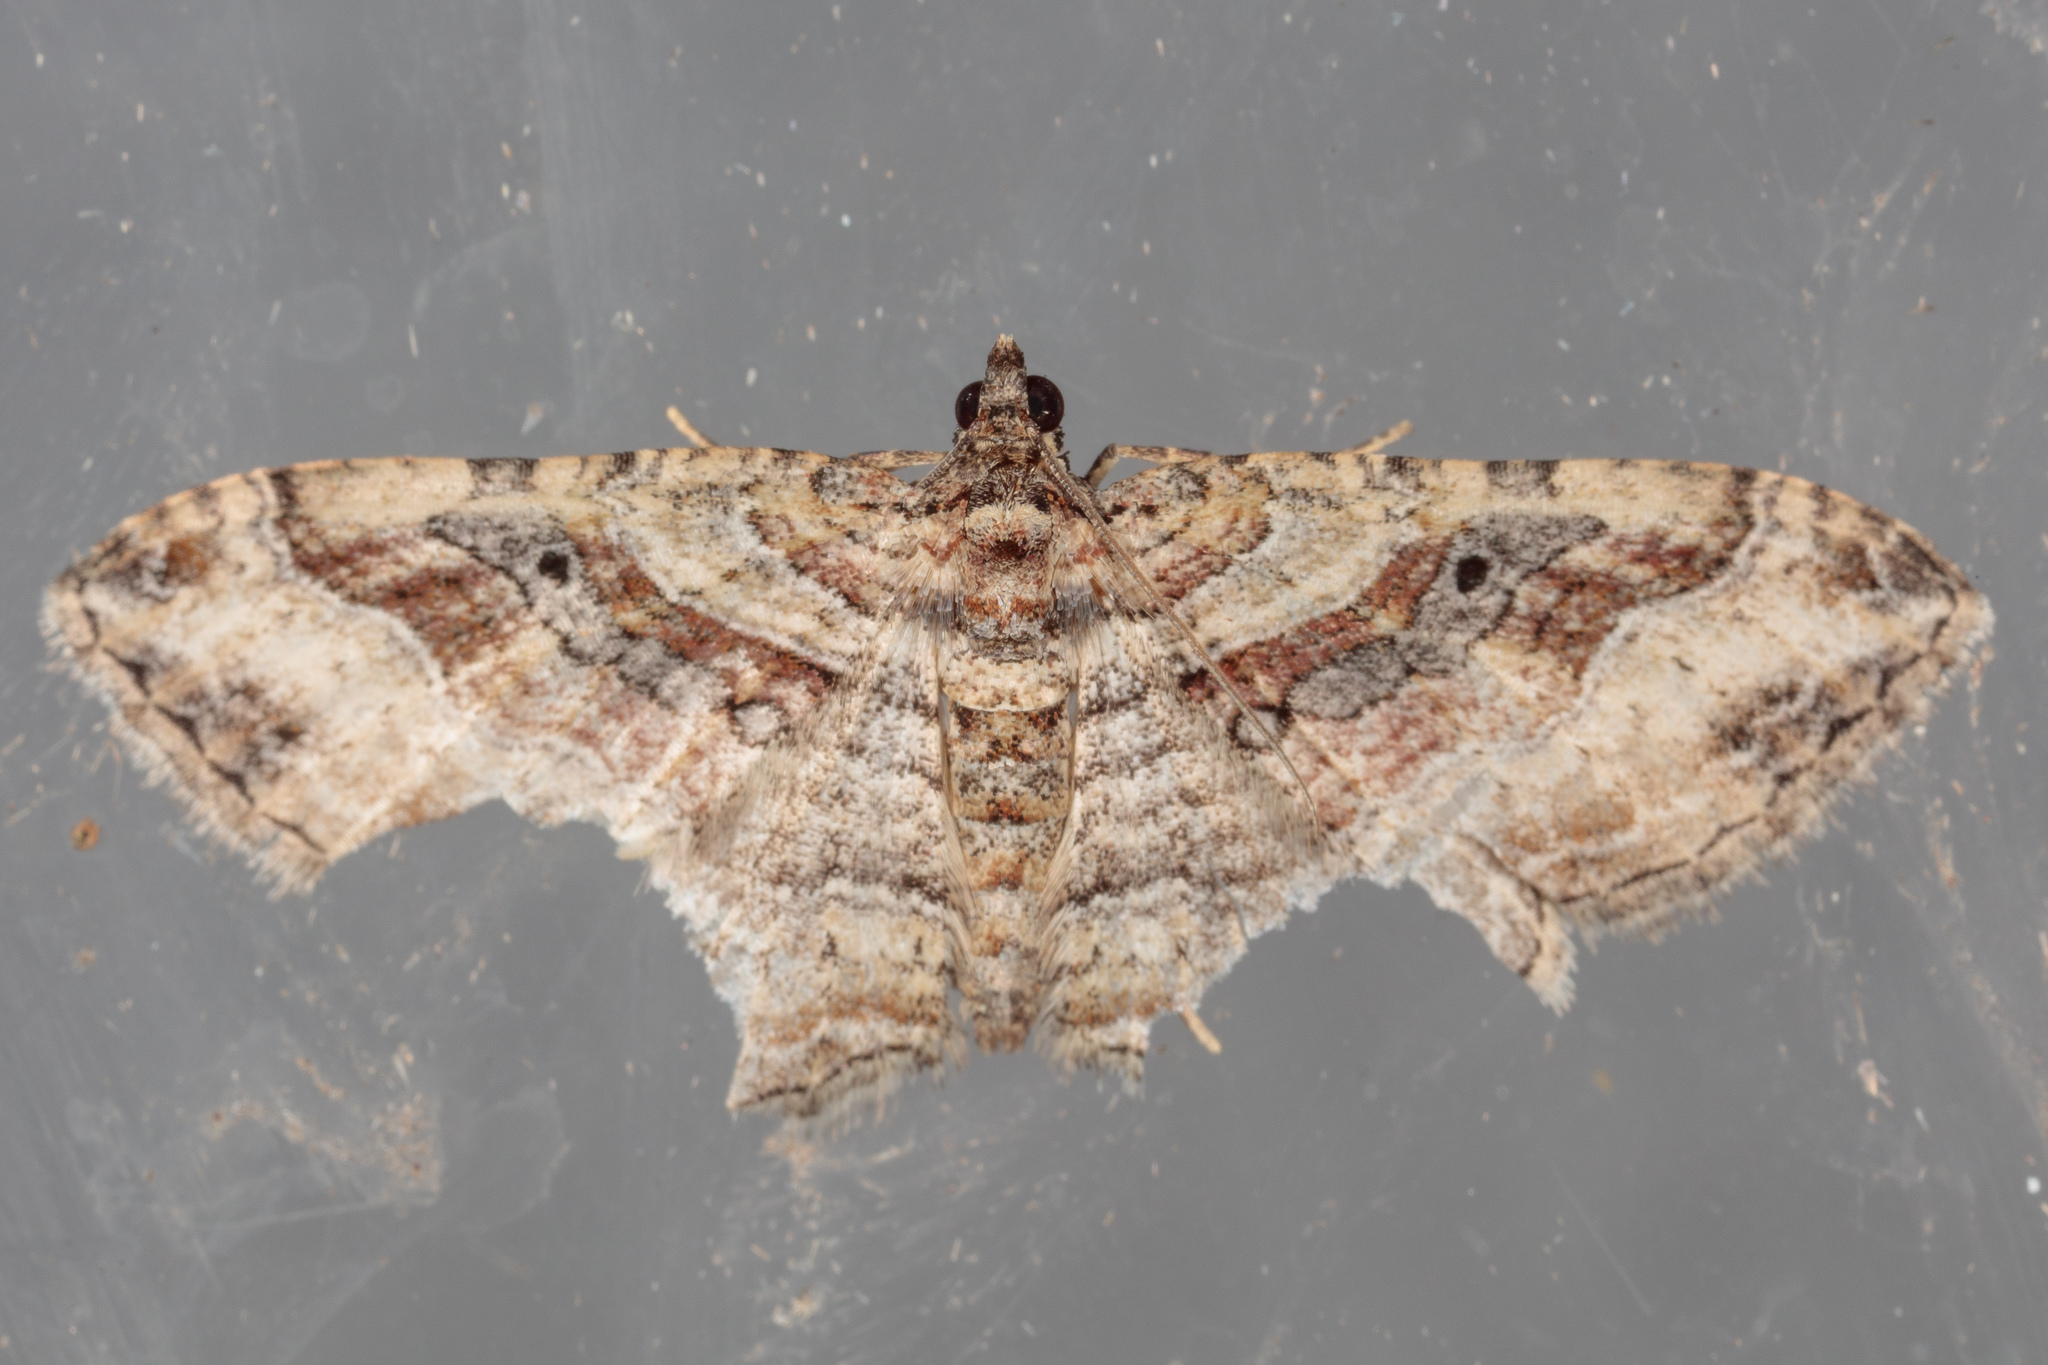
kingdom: Animalia
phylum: Arthropoda
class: Insecta
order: Lepidoptera
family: Geometridae
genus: Costaconvexa
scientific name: Costaconvexa centrostrigaria
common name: Bent-line carpet
